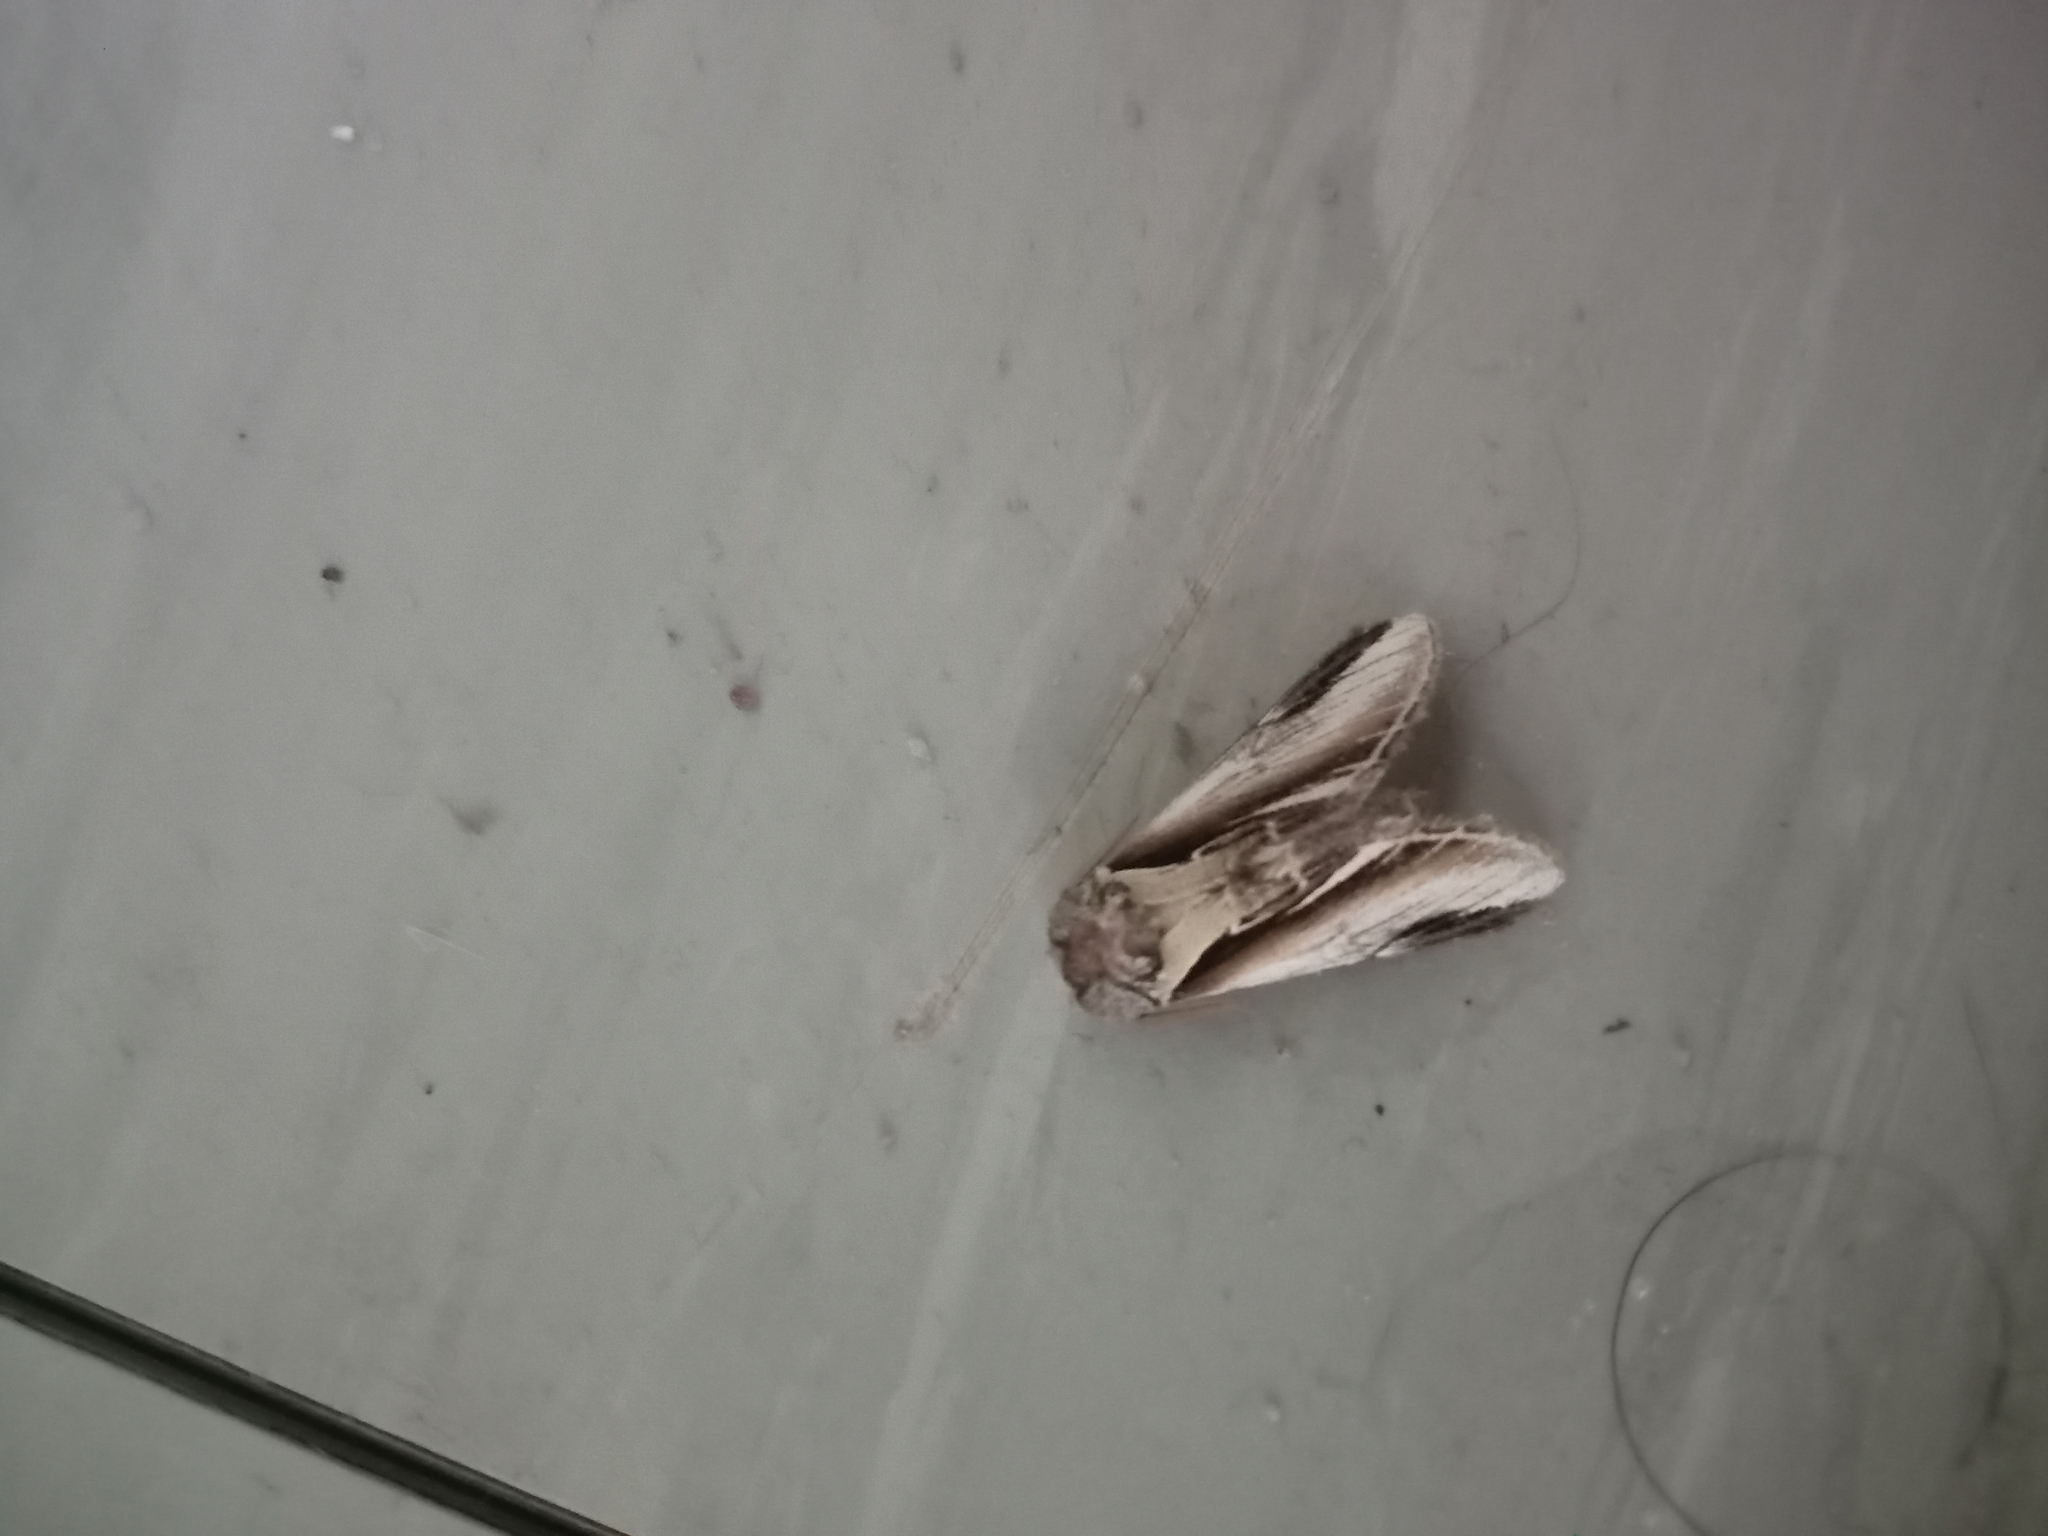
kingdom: Animalia
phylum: Arthropoda
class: Insecta
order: Lepidoptera
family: Notodontidae
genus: Pheosia
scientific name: Pheosia gnoma
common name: Lesser swallow prominent
